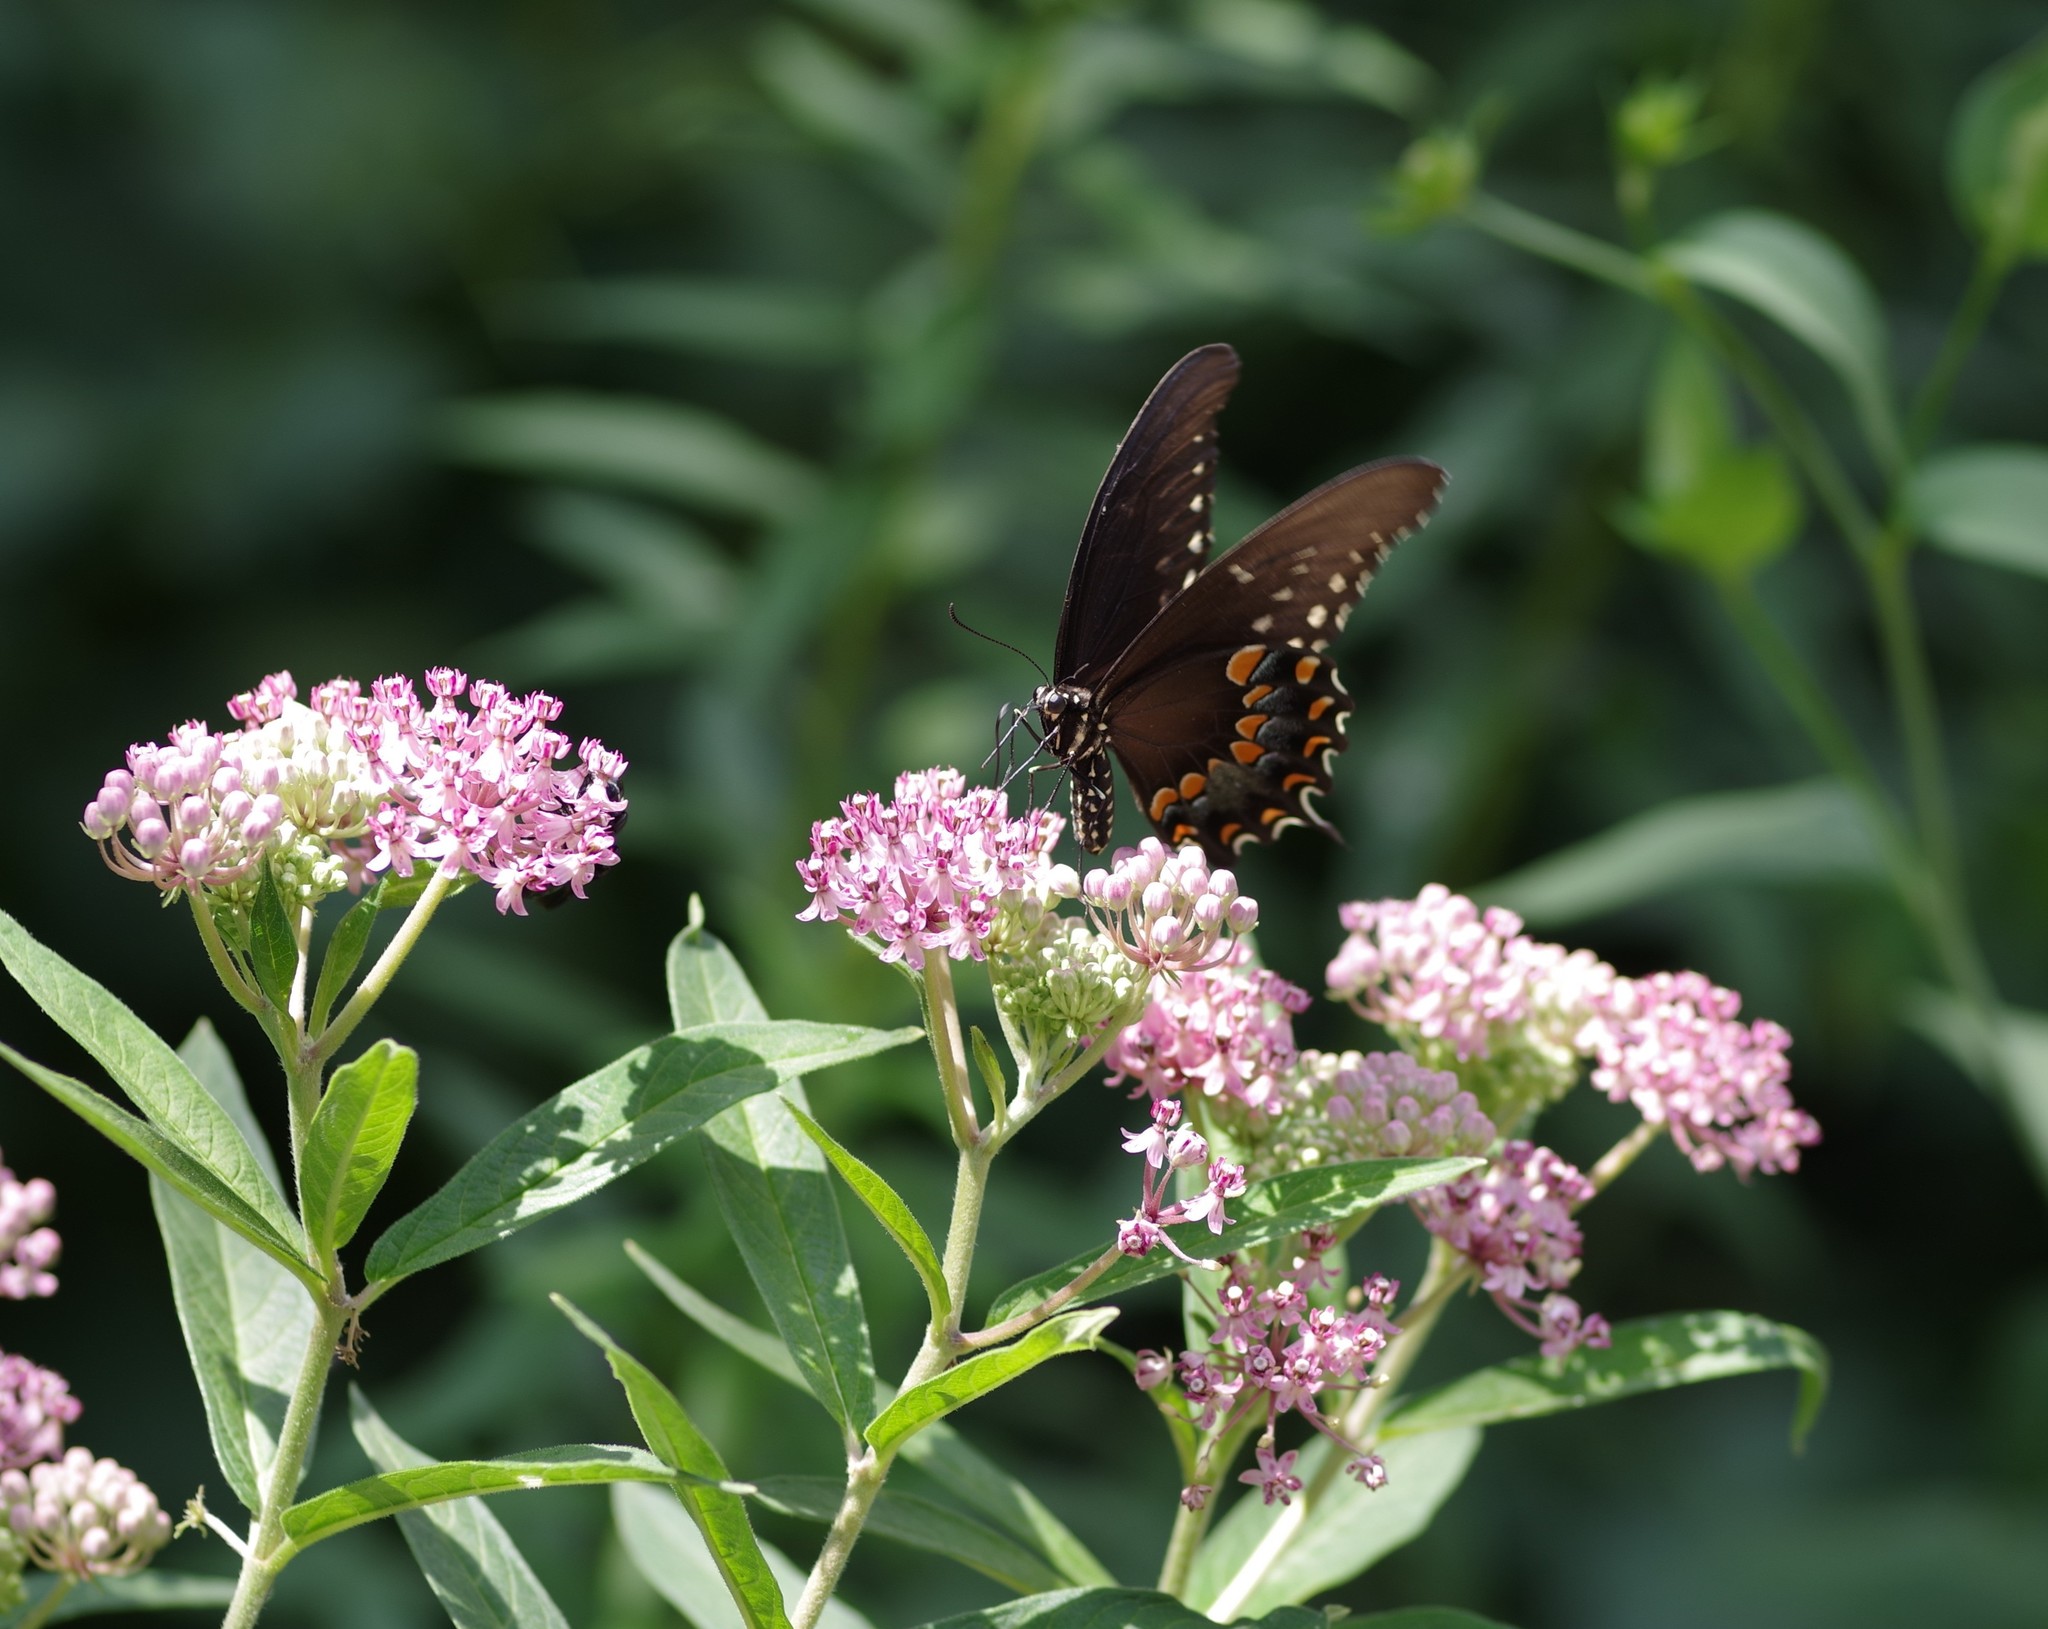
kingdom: Animalia
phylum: Arthropoda
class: Insecta
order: Lepidoptera
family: Papilionidae
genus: Papilio
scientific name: Papilio troilus
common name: Spicebush swallowtail
